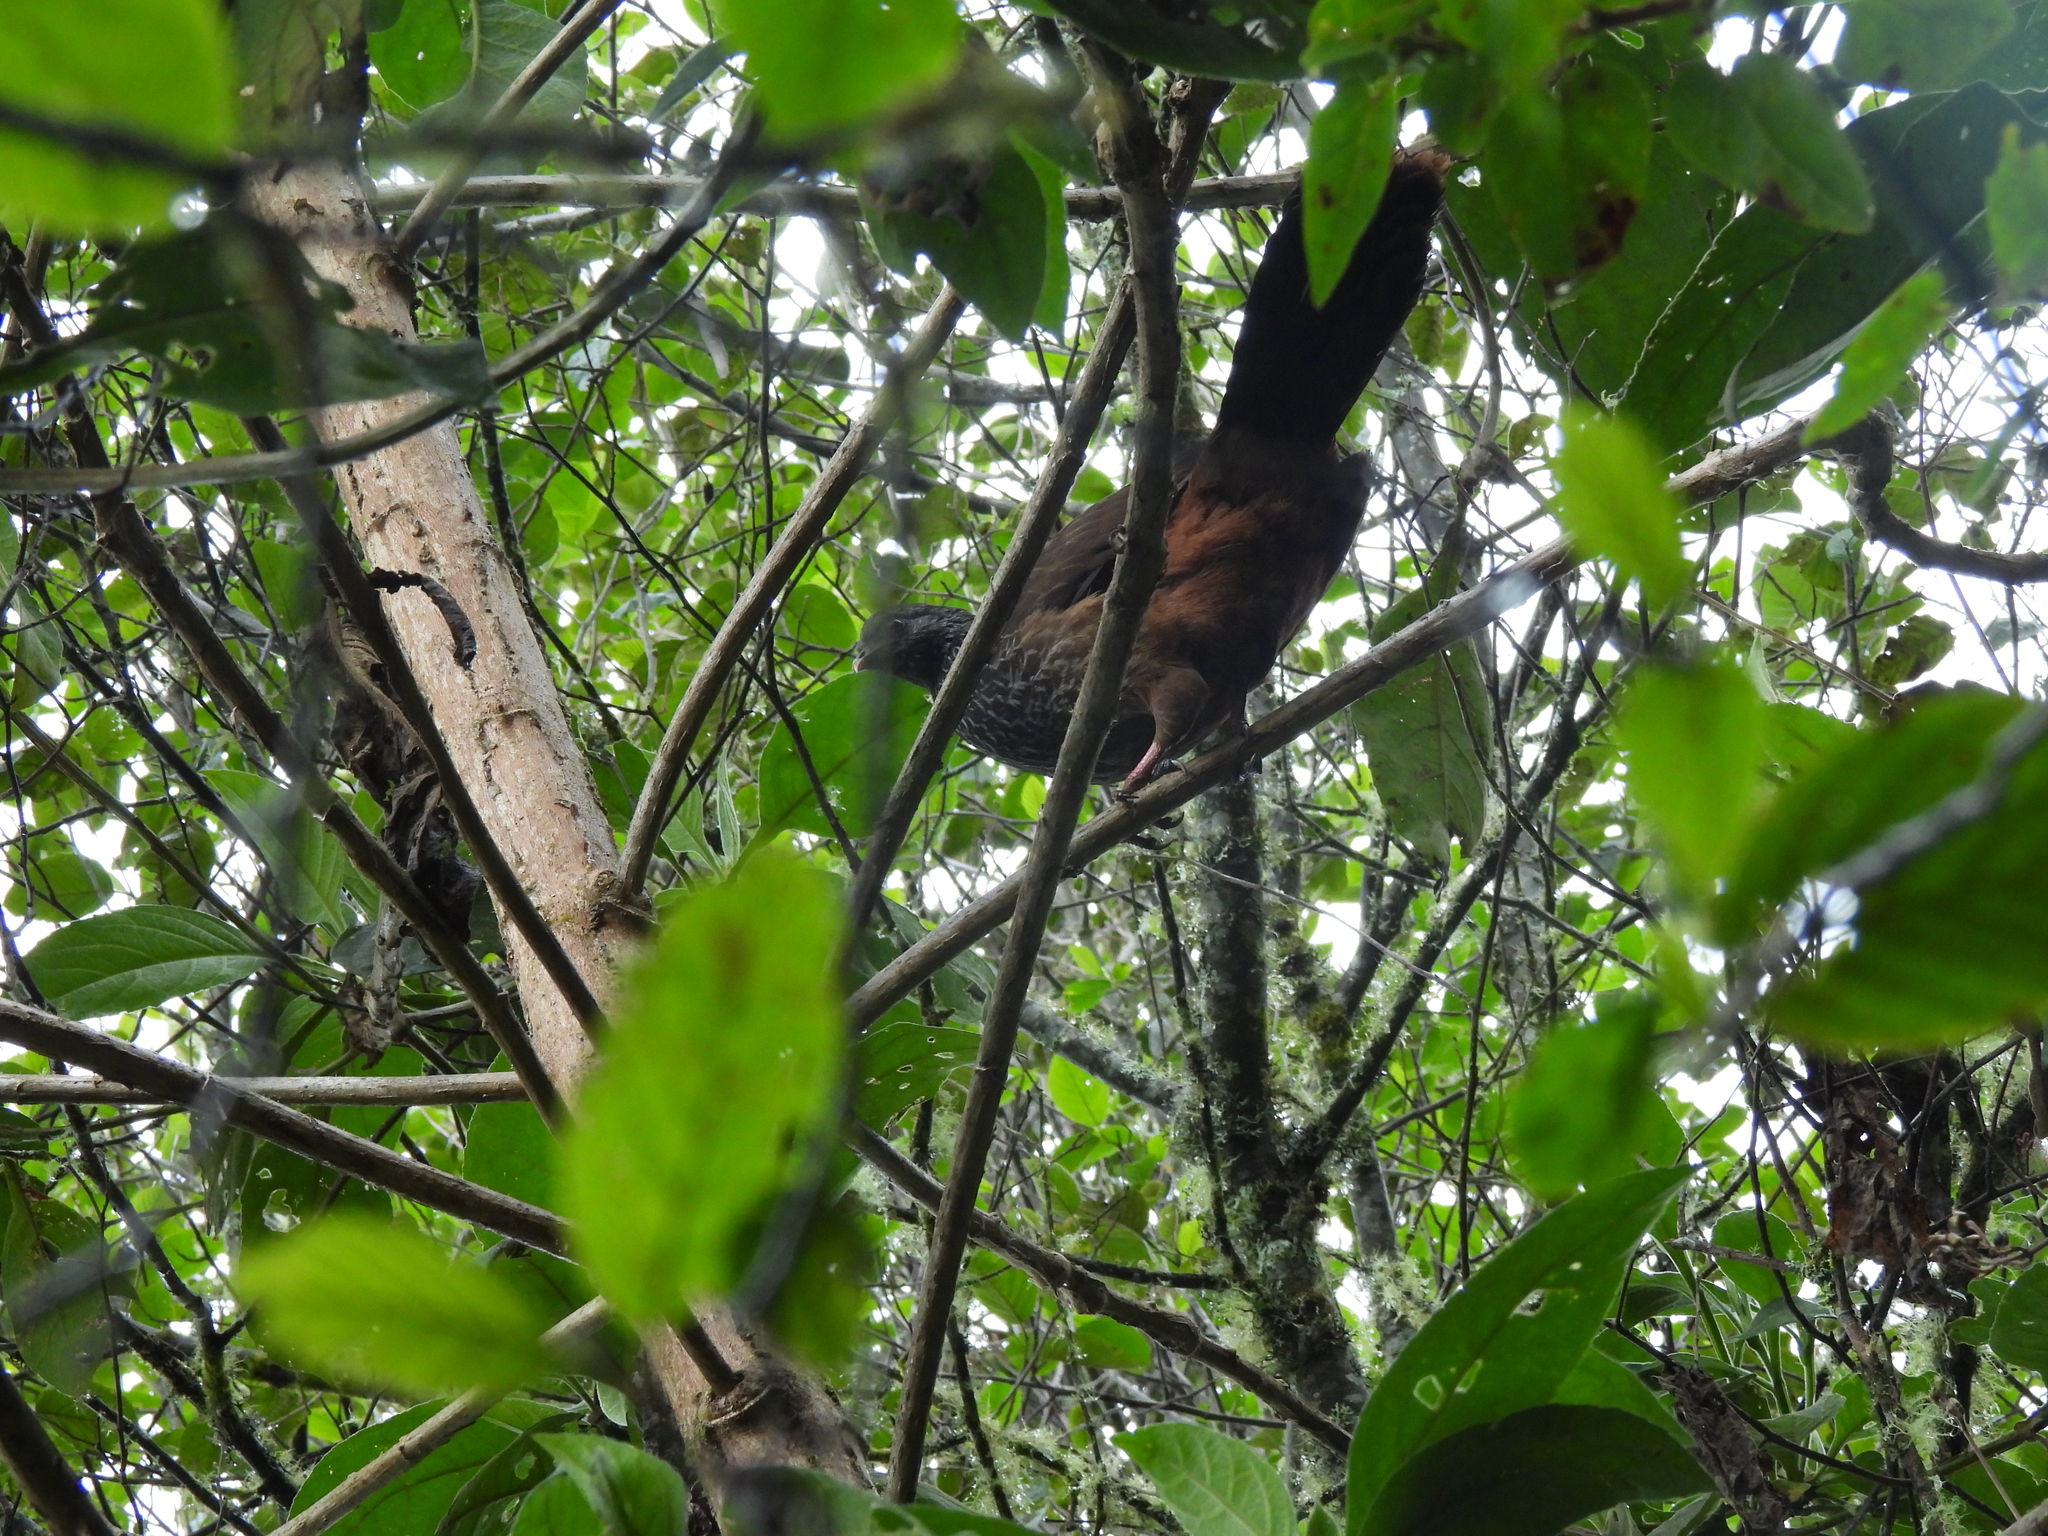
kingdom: Animalia
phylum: Chordata
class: Aves
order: Galliformes
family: Cracidae
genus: Penelope
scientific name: Penelope montagnii
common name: Andean guan
